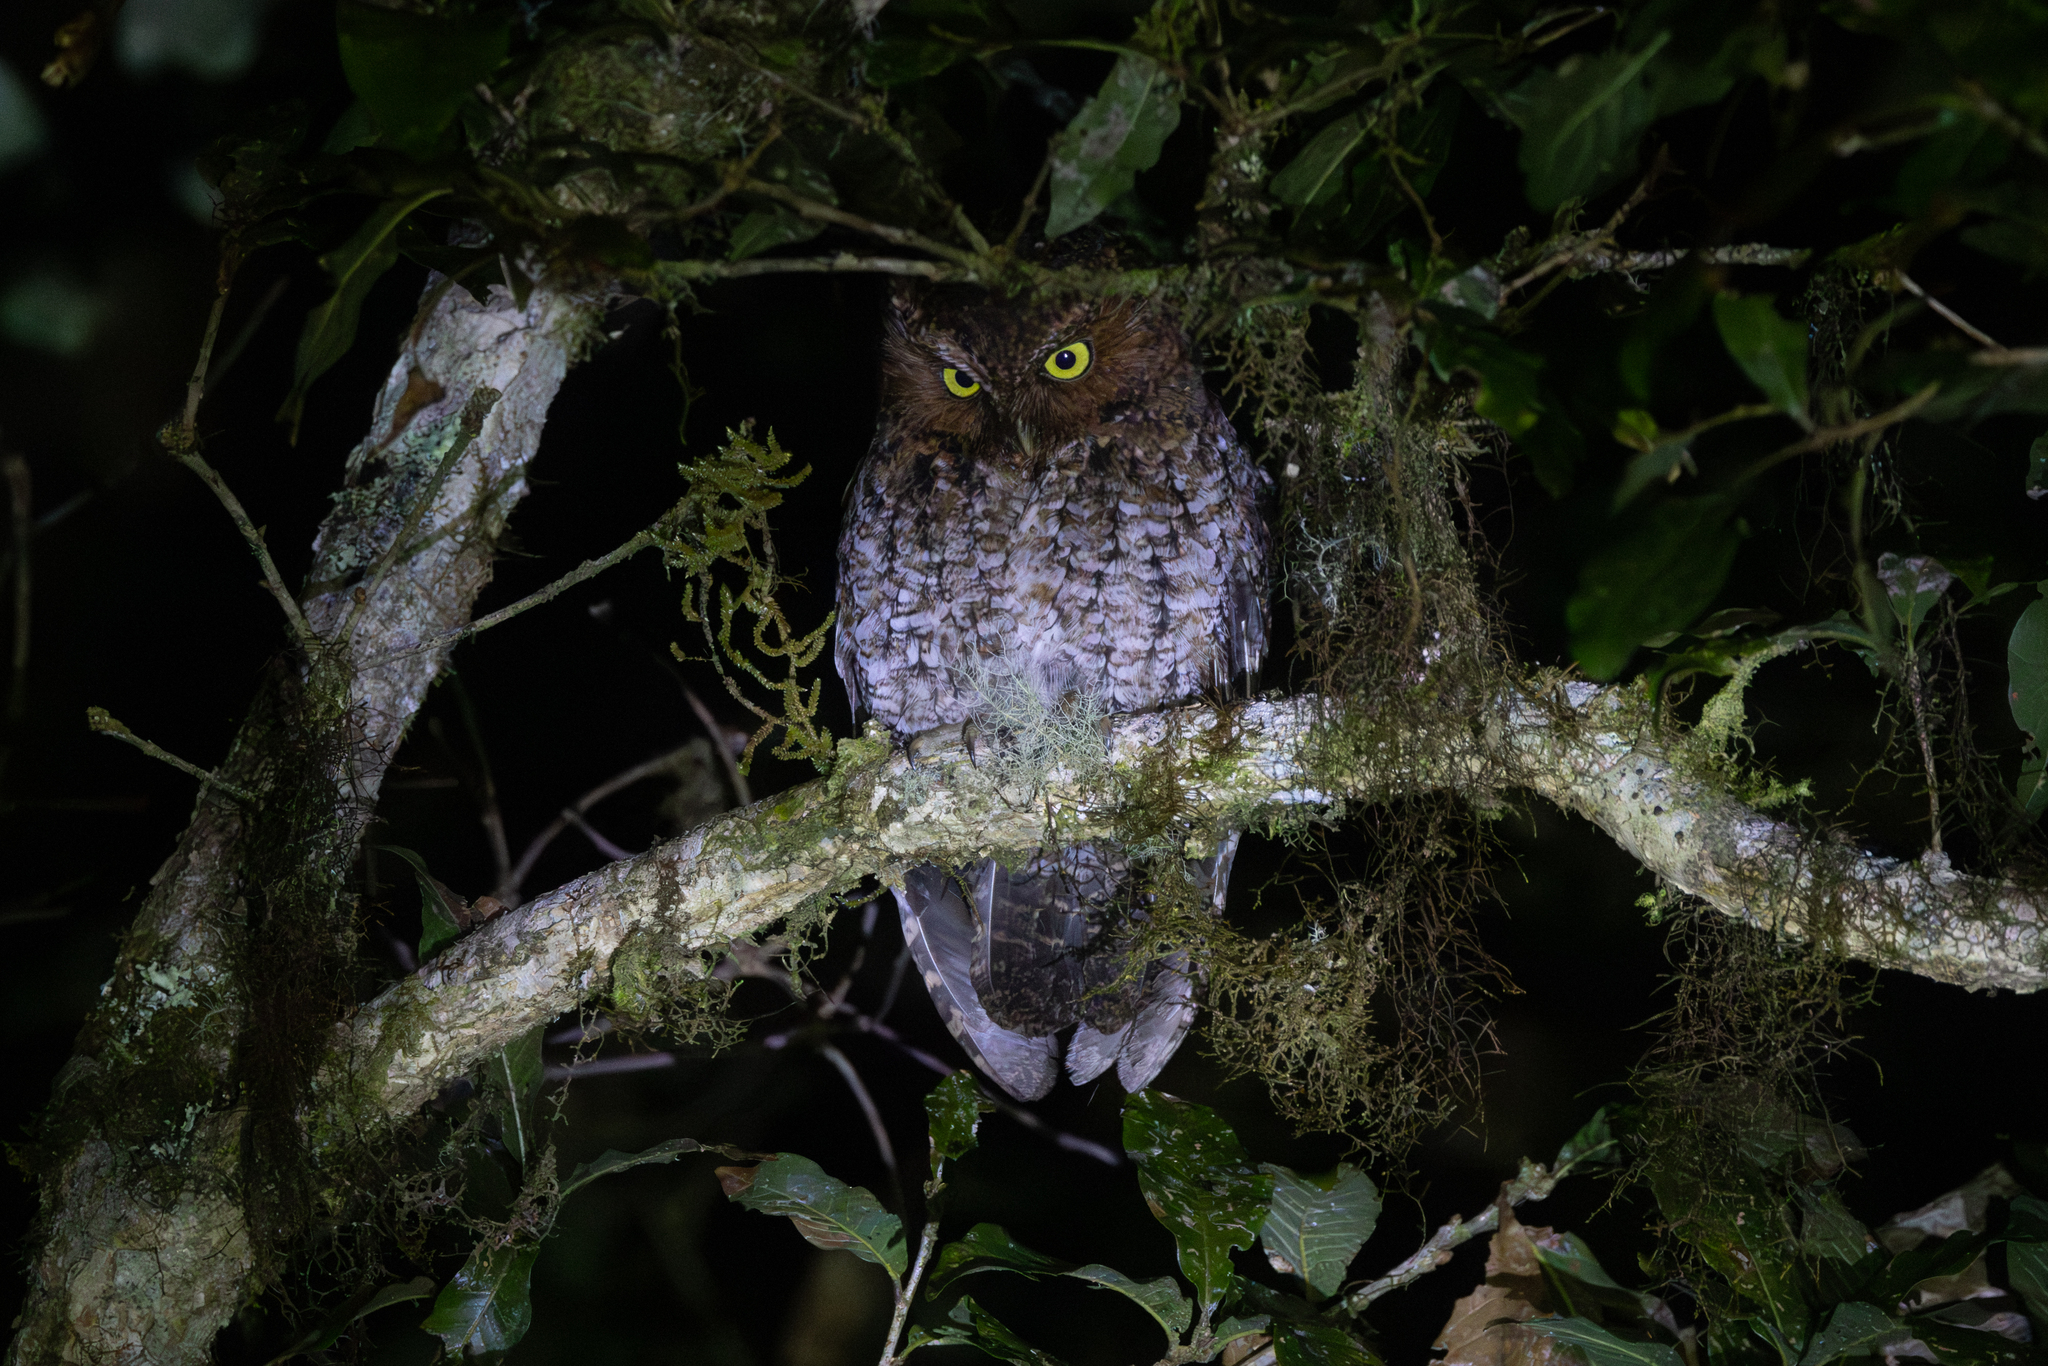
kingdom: Animalia
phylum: Chordata
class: Aves
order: Strigiformes
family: Strigidae
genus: Megascops
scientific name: Megascops clarkii
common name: Bare-shanked screech-owl
